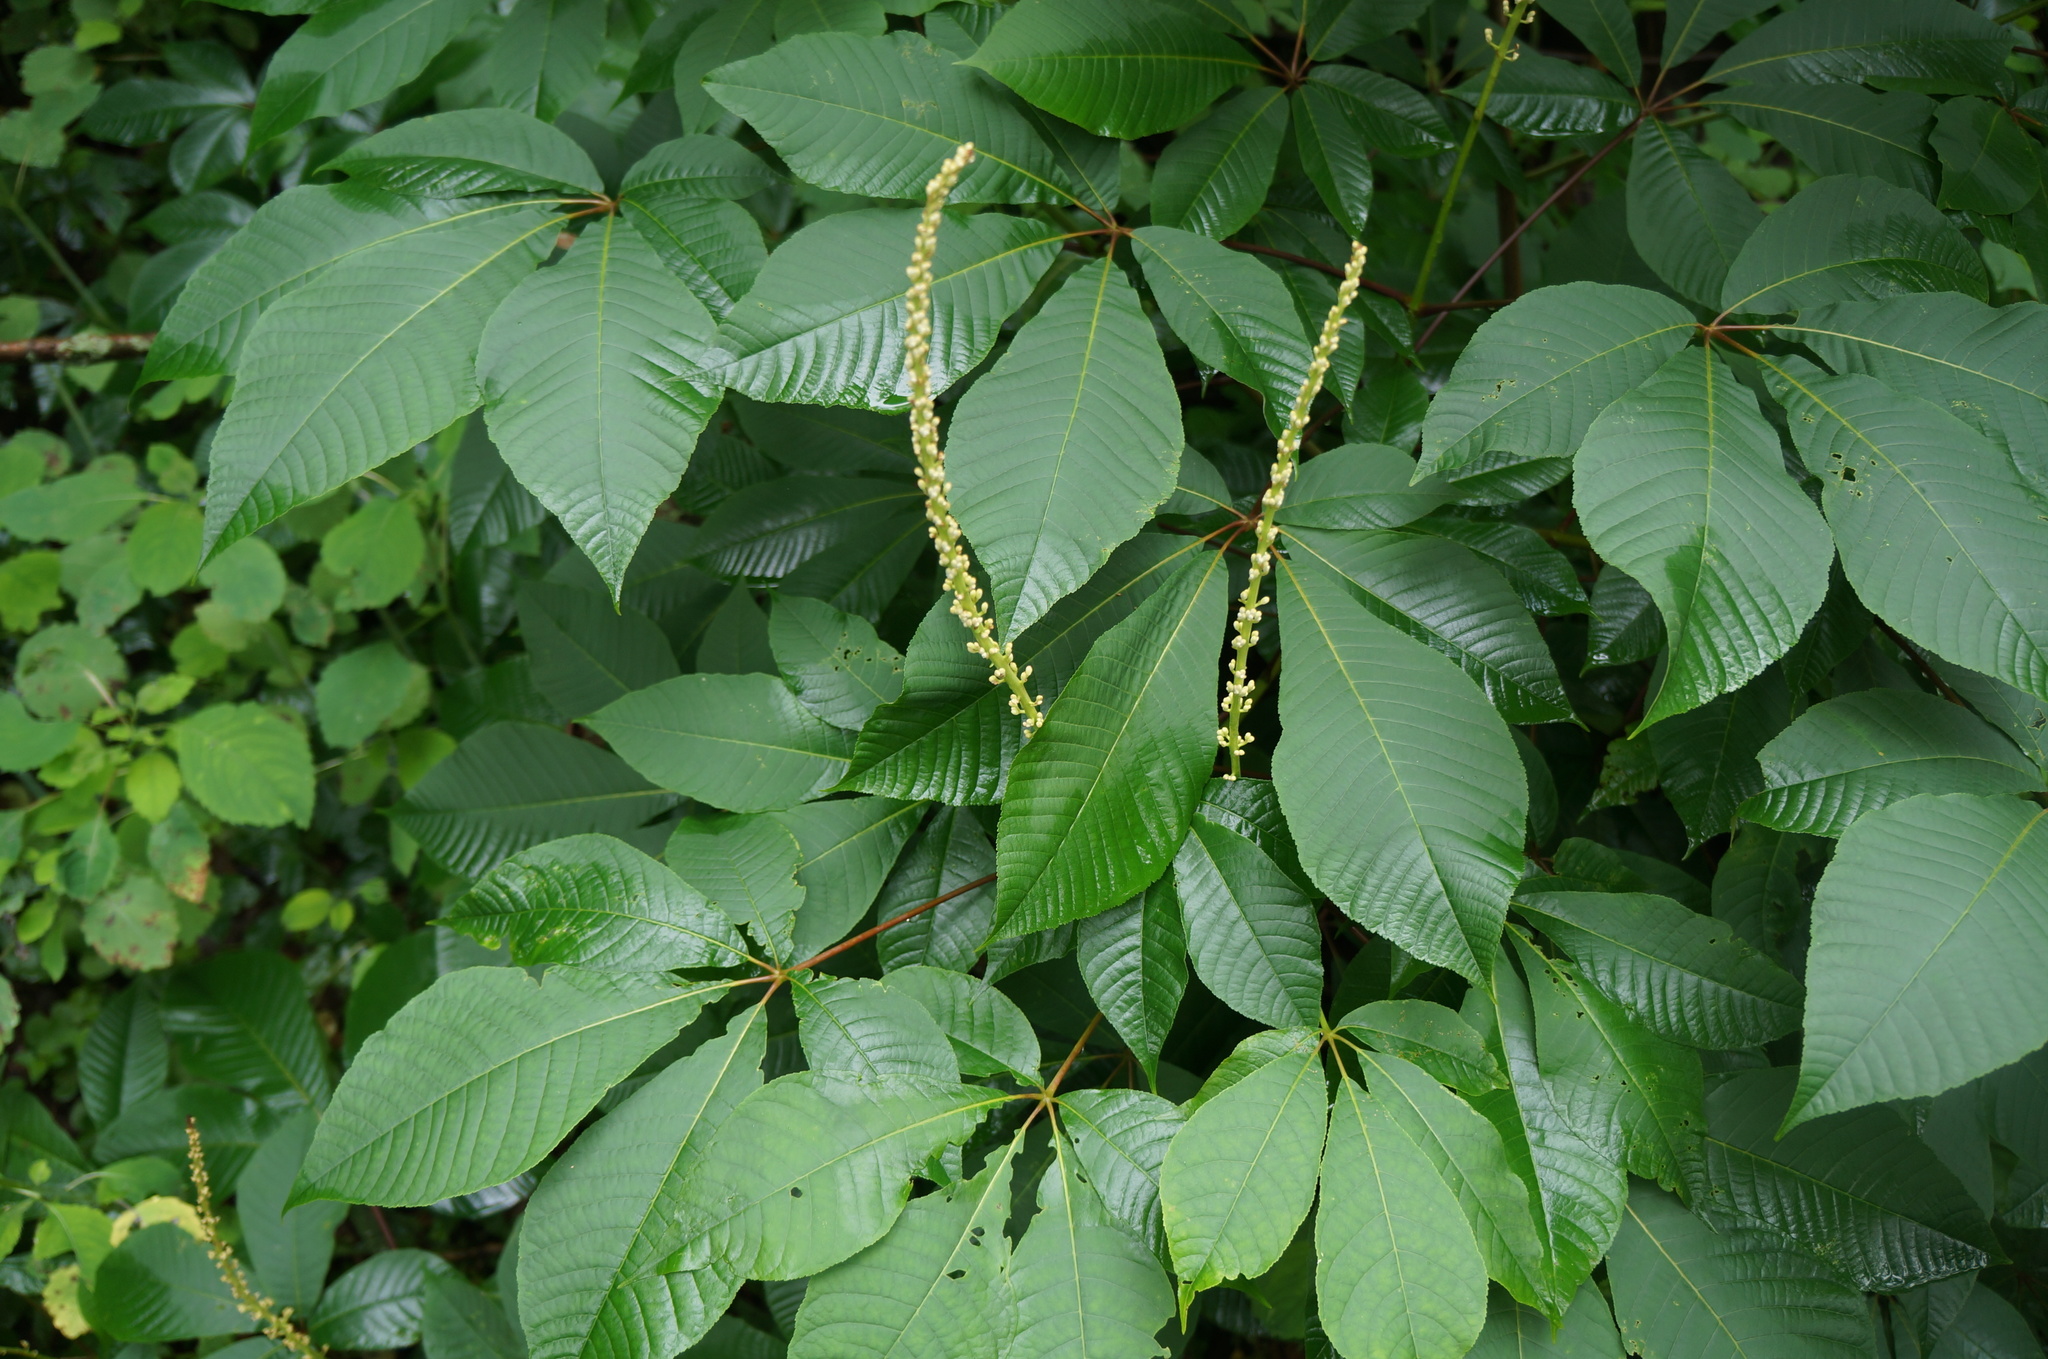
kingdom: Plantae
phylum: Tracheophyta
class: Magnoliopsida
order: Sapindales
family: Sapindaceae
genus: Aesculus
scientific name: Aesculus parviflora
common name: Bottlebrush buckeye
